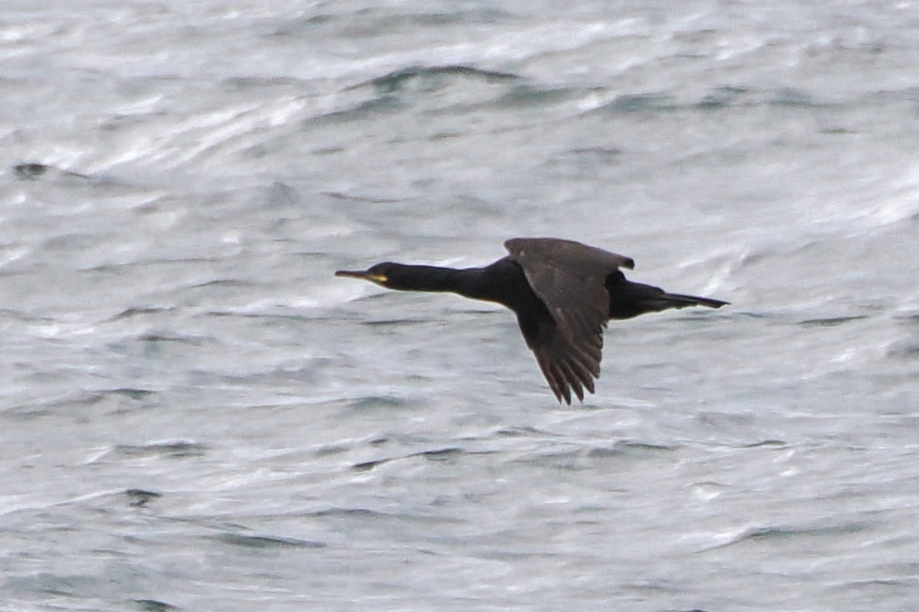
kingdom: Animalia
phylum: Chordata
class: Aves
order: Suliformes
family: Phalacrocoracidae
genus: Phalacrocorax
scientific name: Phalacrocorax aristotelis
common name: European shag
